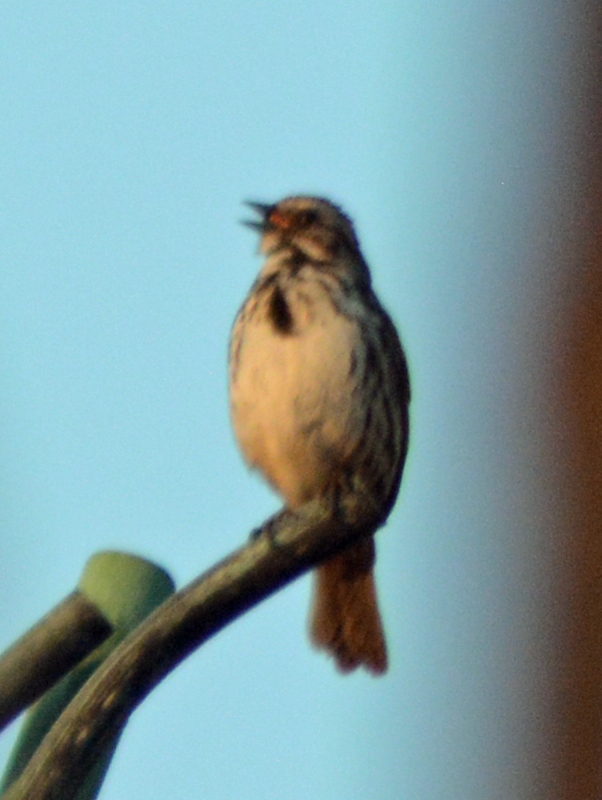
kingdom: Animalia
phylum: Chordata
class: Aves
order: Passeriformes
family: Passerellidae
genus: Melospiza
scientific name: Melospiza melodia
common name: Song sparrow
